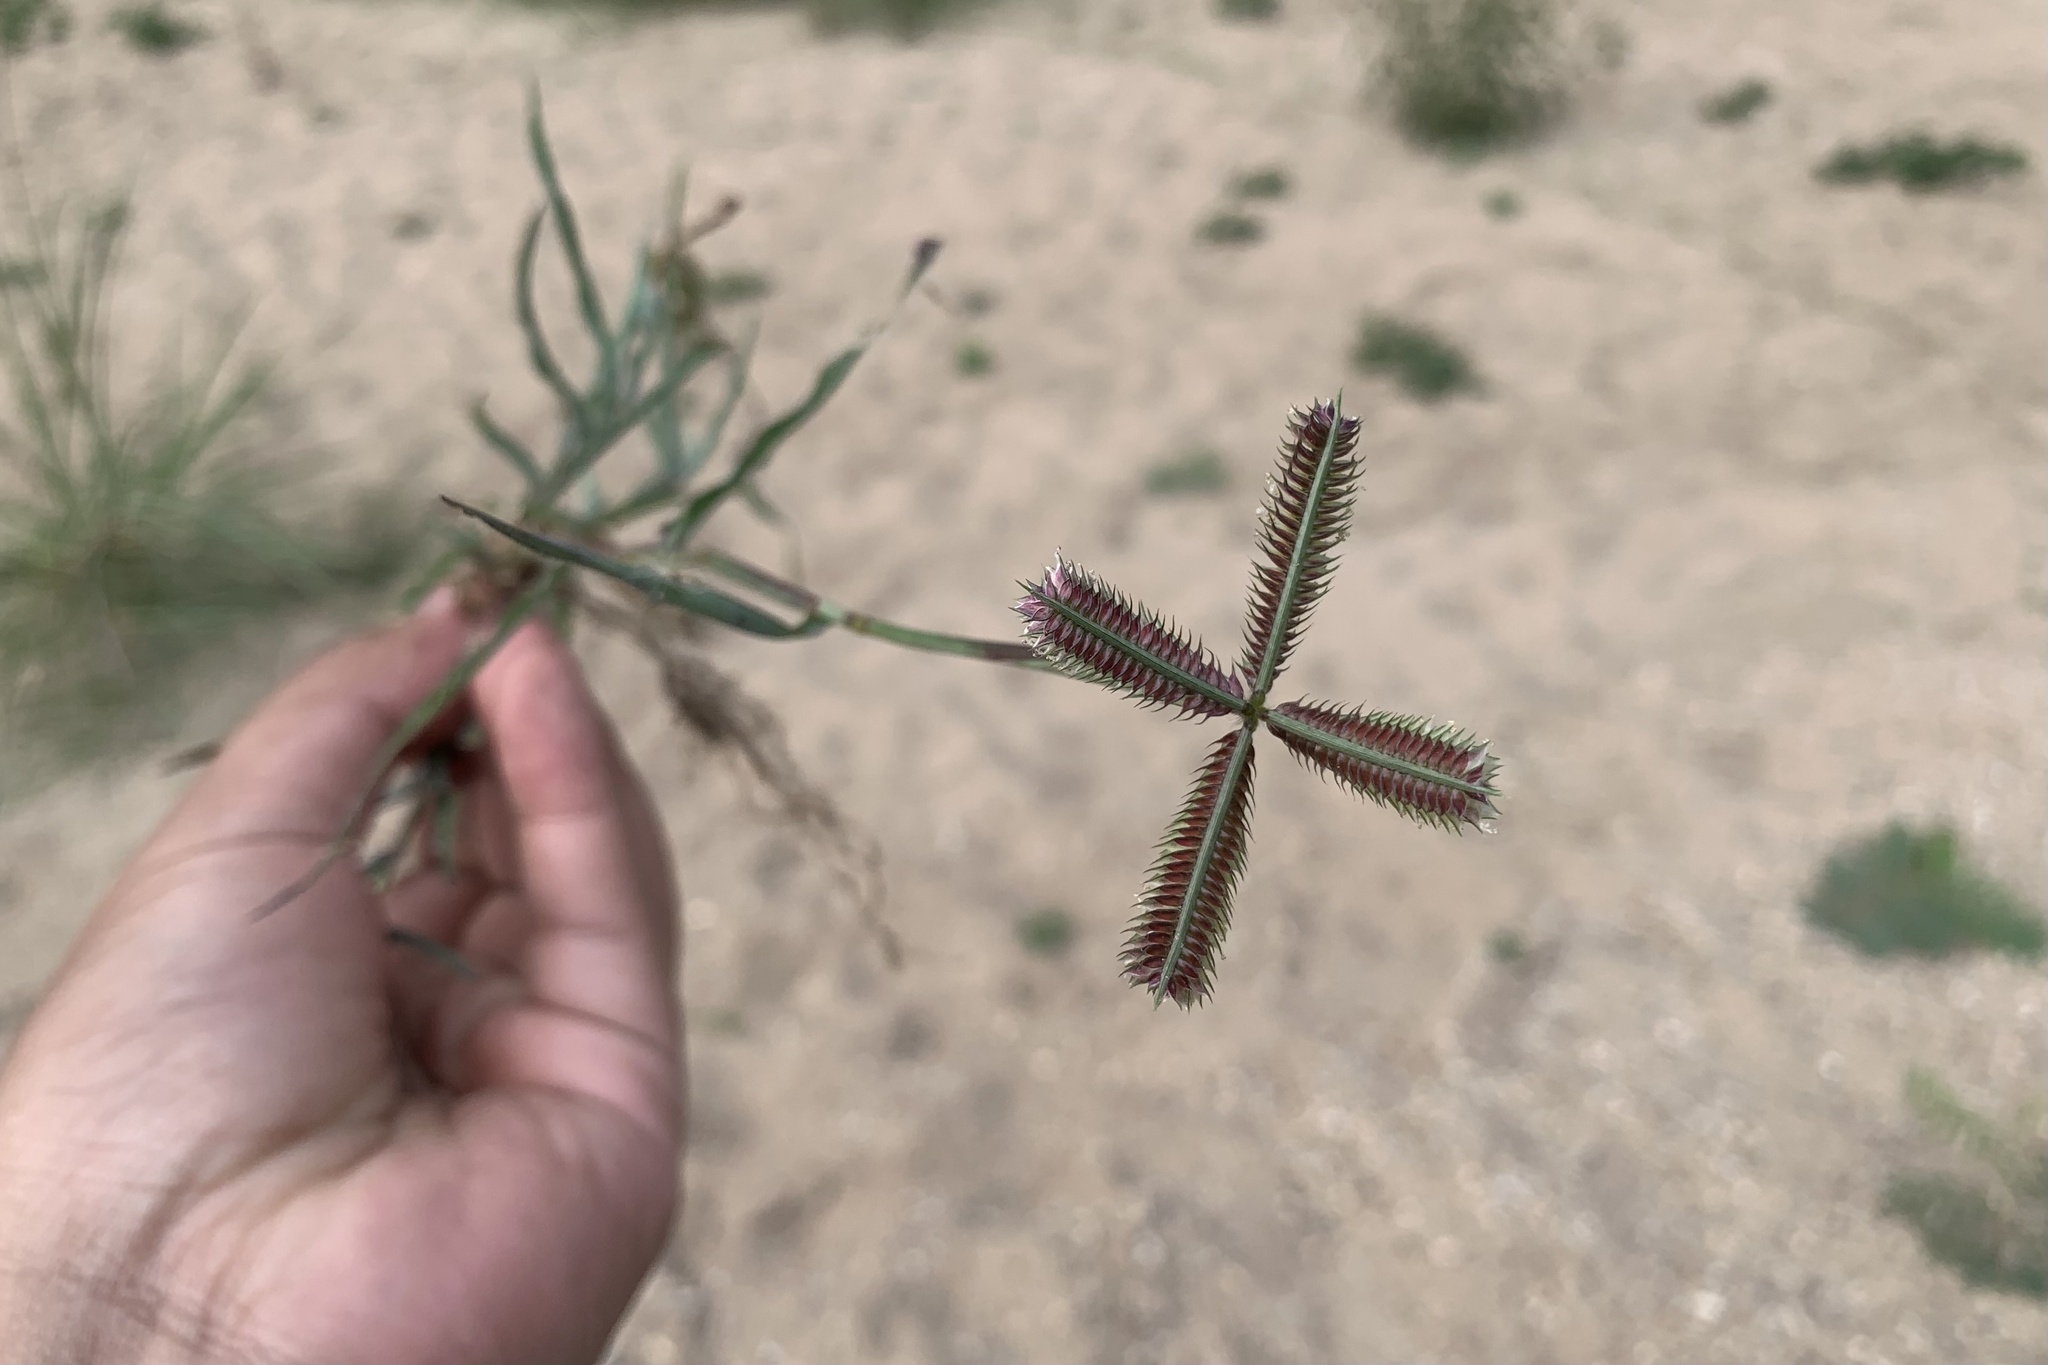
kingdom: Plantae
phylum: Tracheophyta
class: Liliopsida
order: Poales
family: Poaceae
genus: Dactyloctenium
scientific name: Dactyloctenium aegyptium
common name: Egyptian grass
